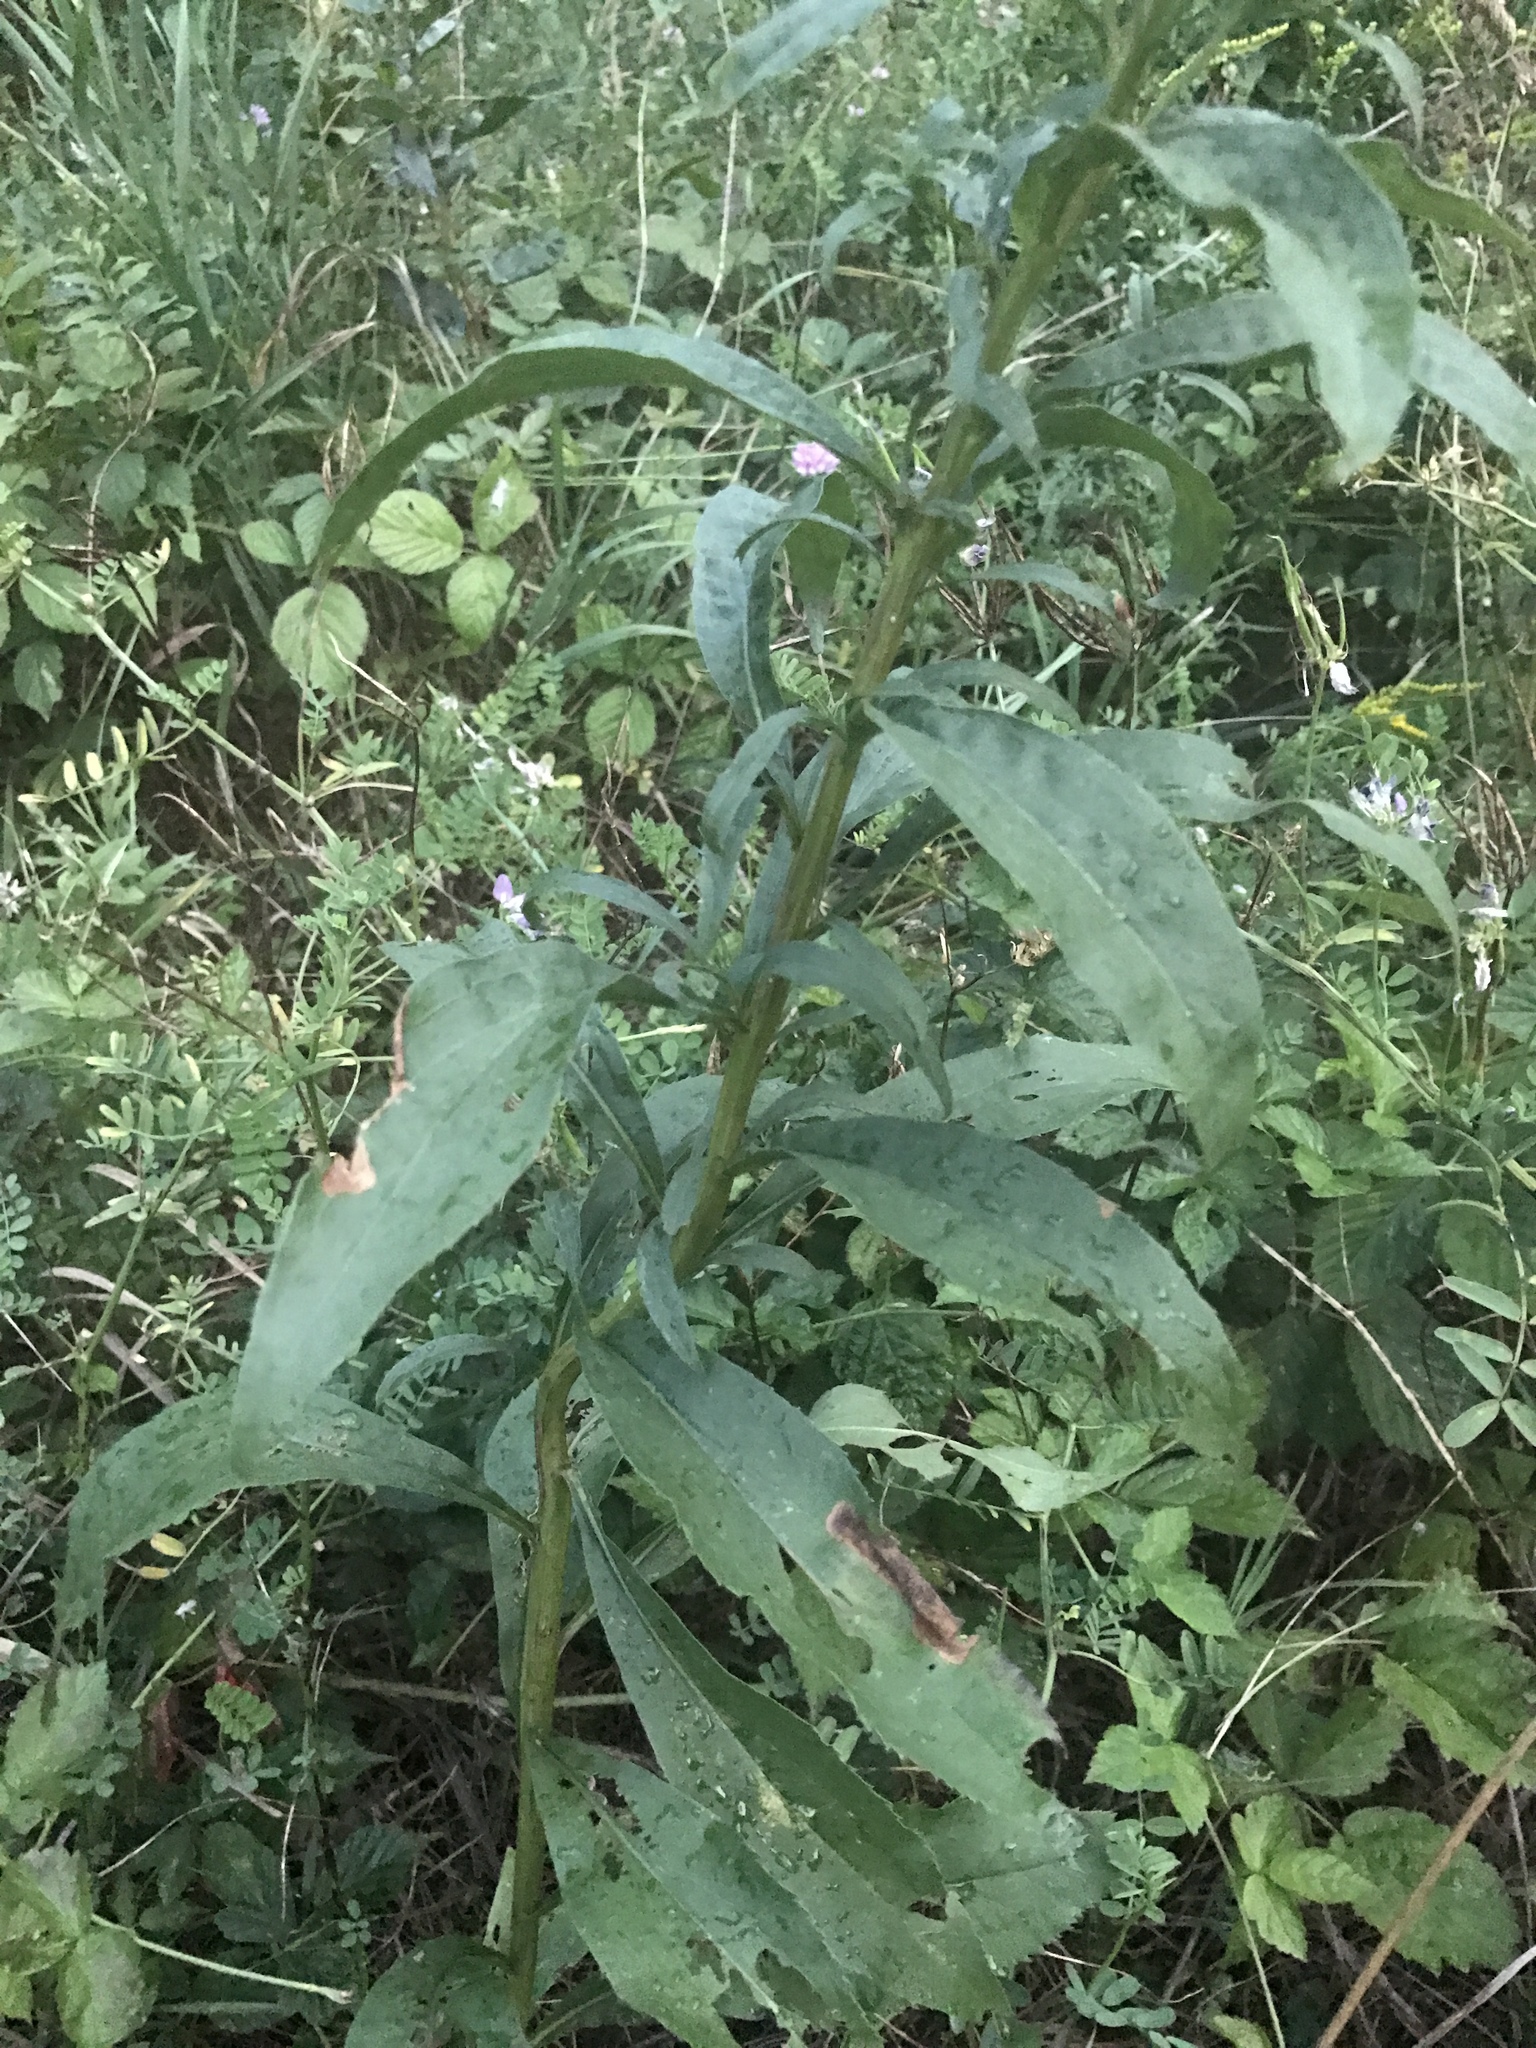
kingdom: Plantae
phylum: Tracheophyta
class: Magnoliopsida
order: Asterales
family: Asteraceae
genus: Solidago
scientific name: Solidago juncea
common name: Early goldenrod
